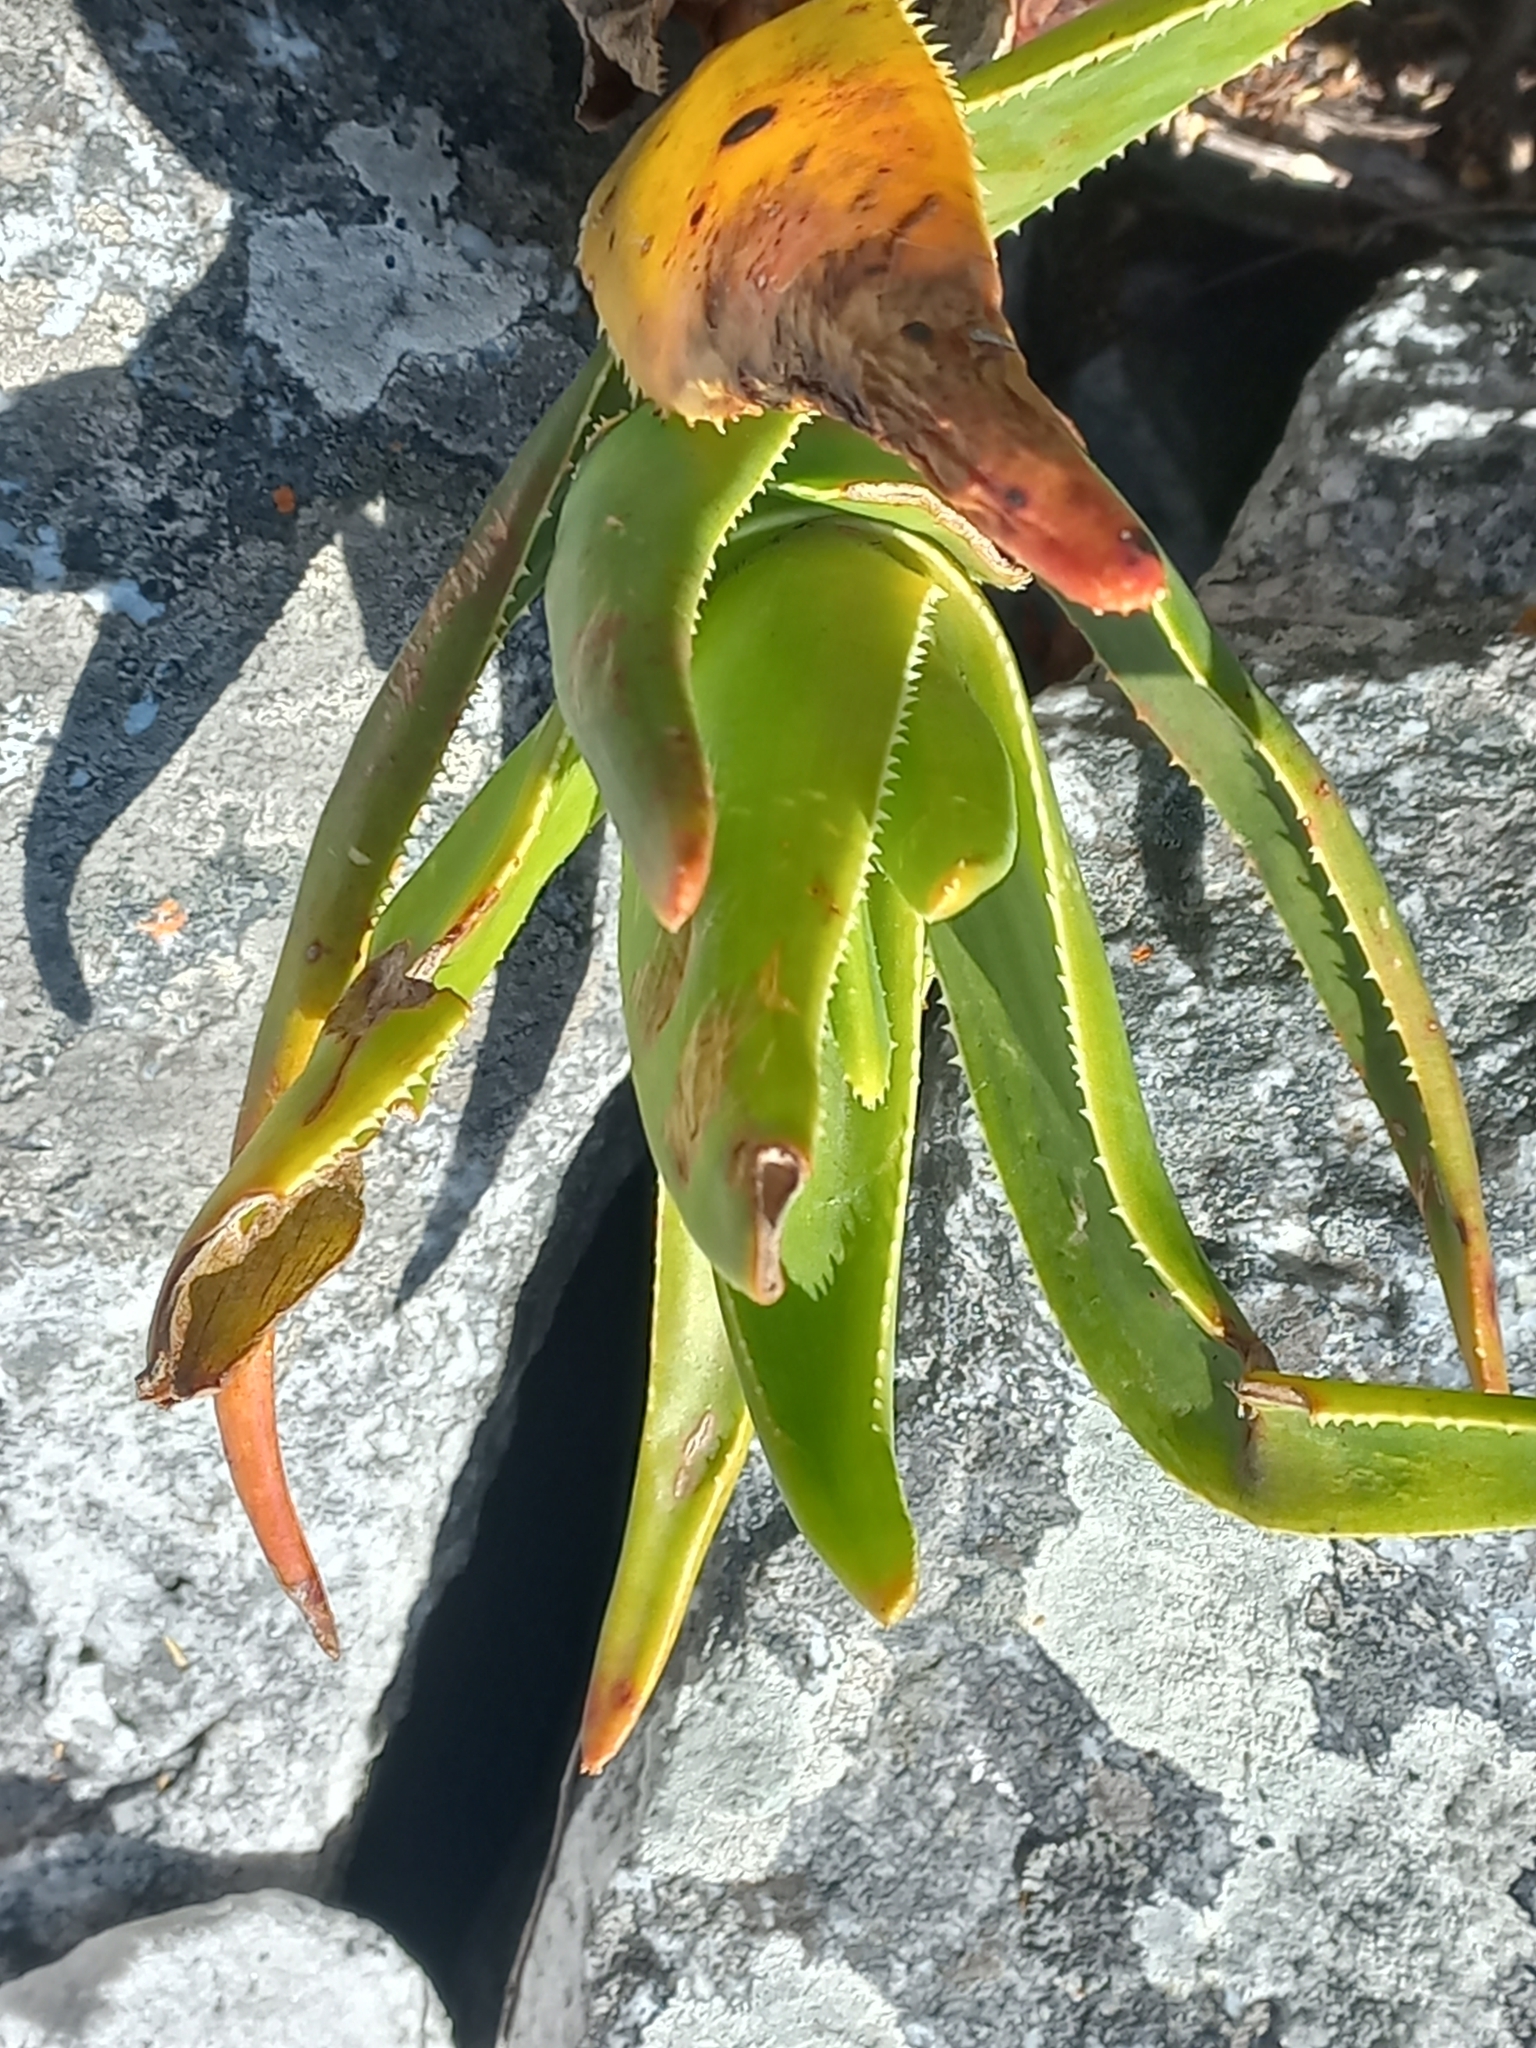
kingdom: Plantae
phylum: Tracheophyta
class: Liliopsida
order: Asparagales
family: Asphodelaceae
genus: Aloiampelos
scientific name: Aloiampelos commixta
